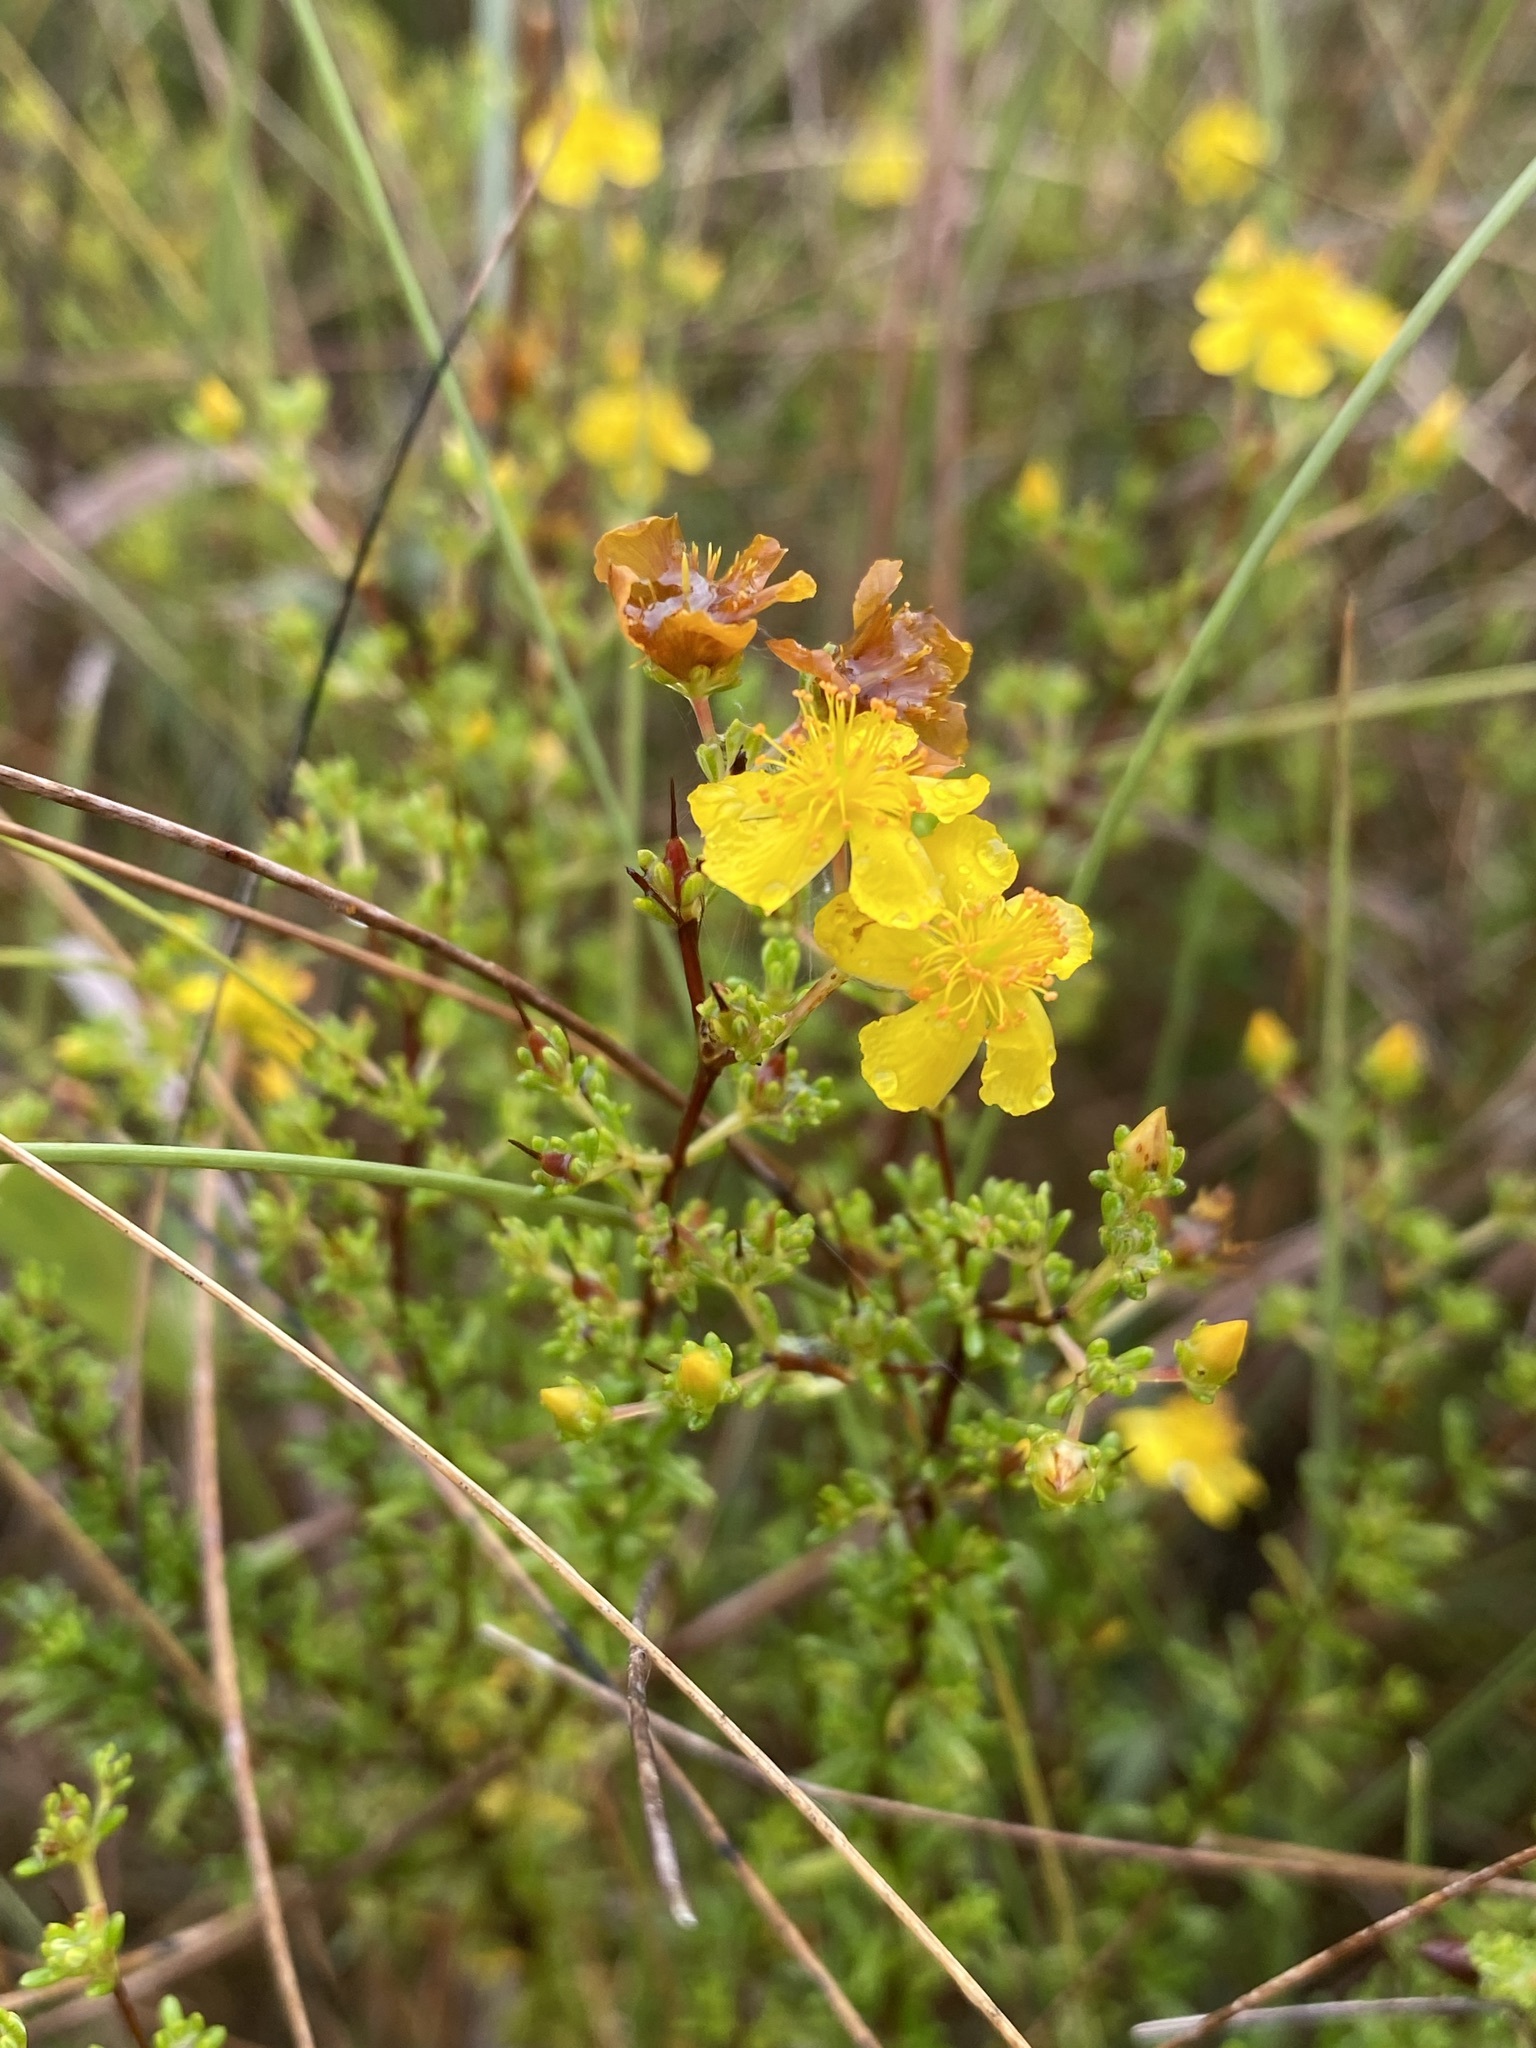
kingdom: Plantae
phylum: Tracheophyta
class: Magnoliopsida
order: Malpighiales
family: Hypericaceae
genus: Hypericum
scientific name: Hypericum brachyphyllum
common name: Coastal plain st. john's-wort
